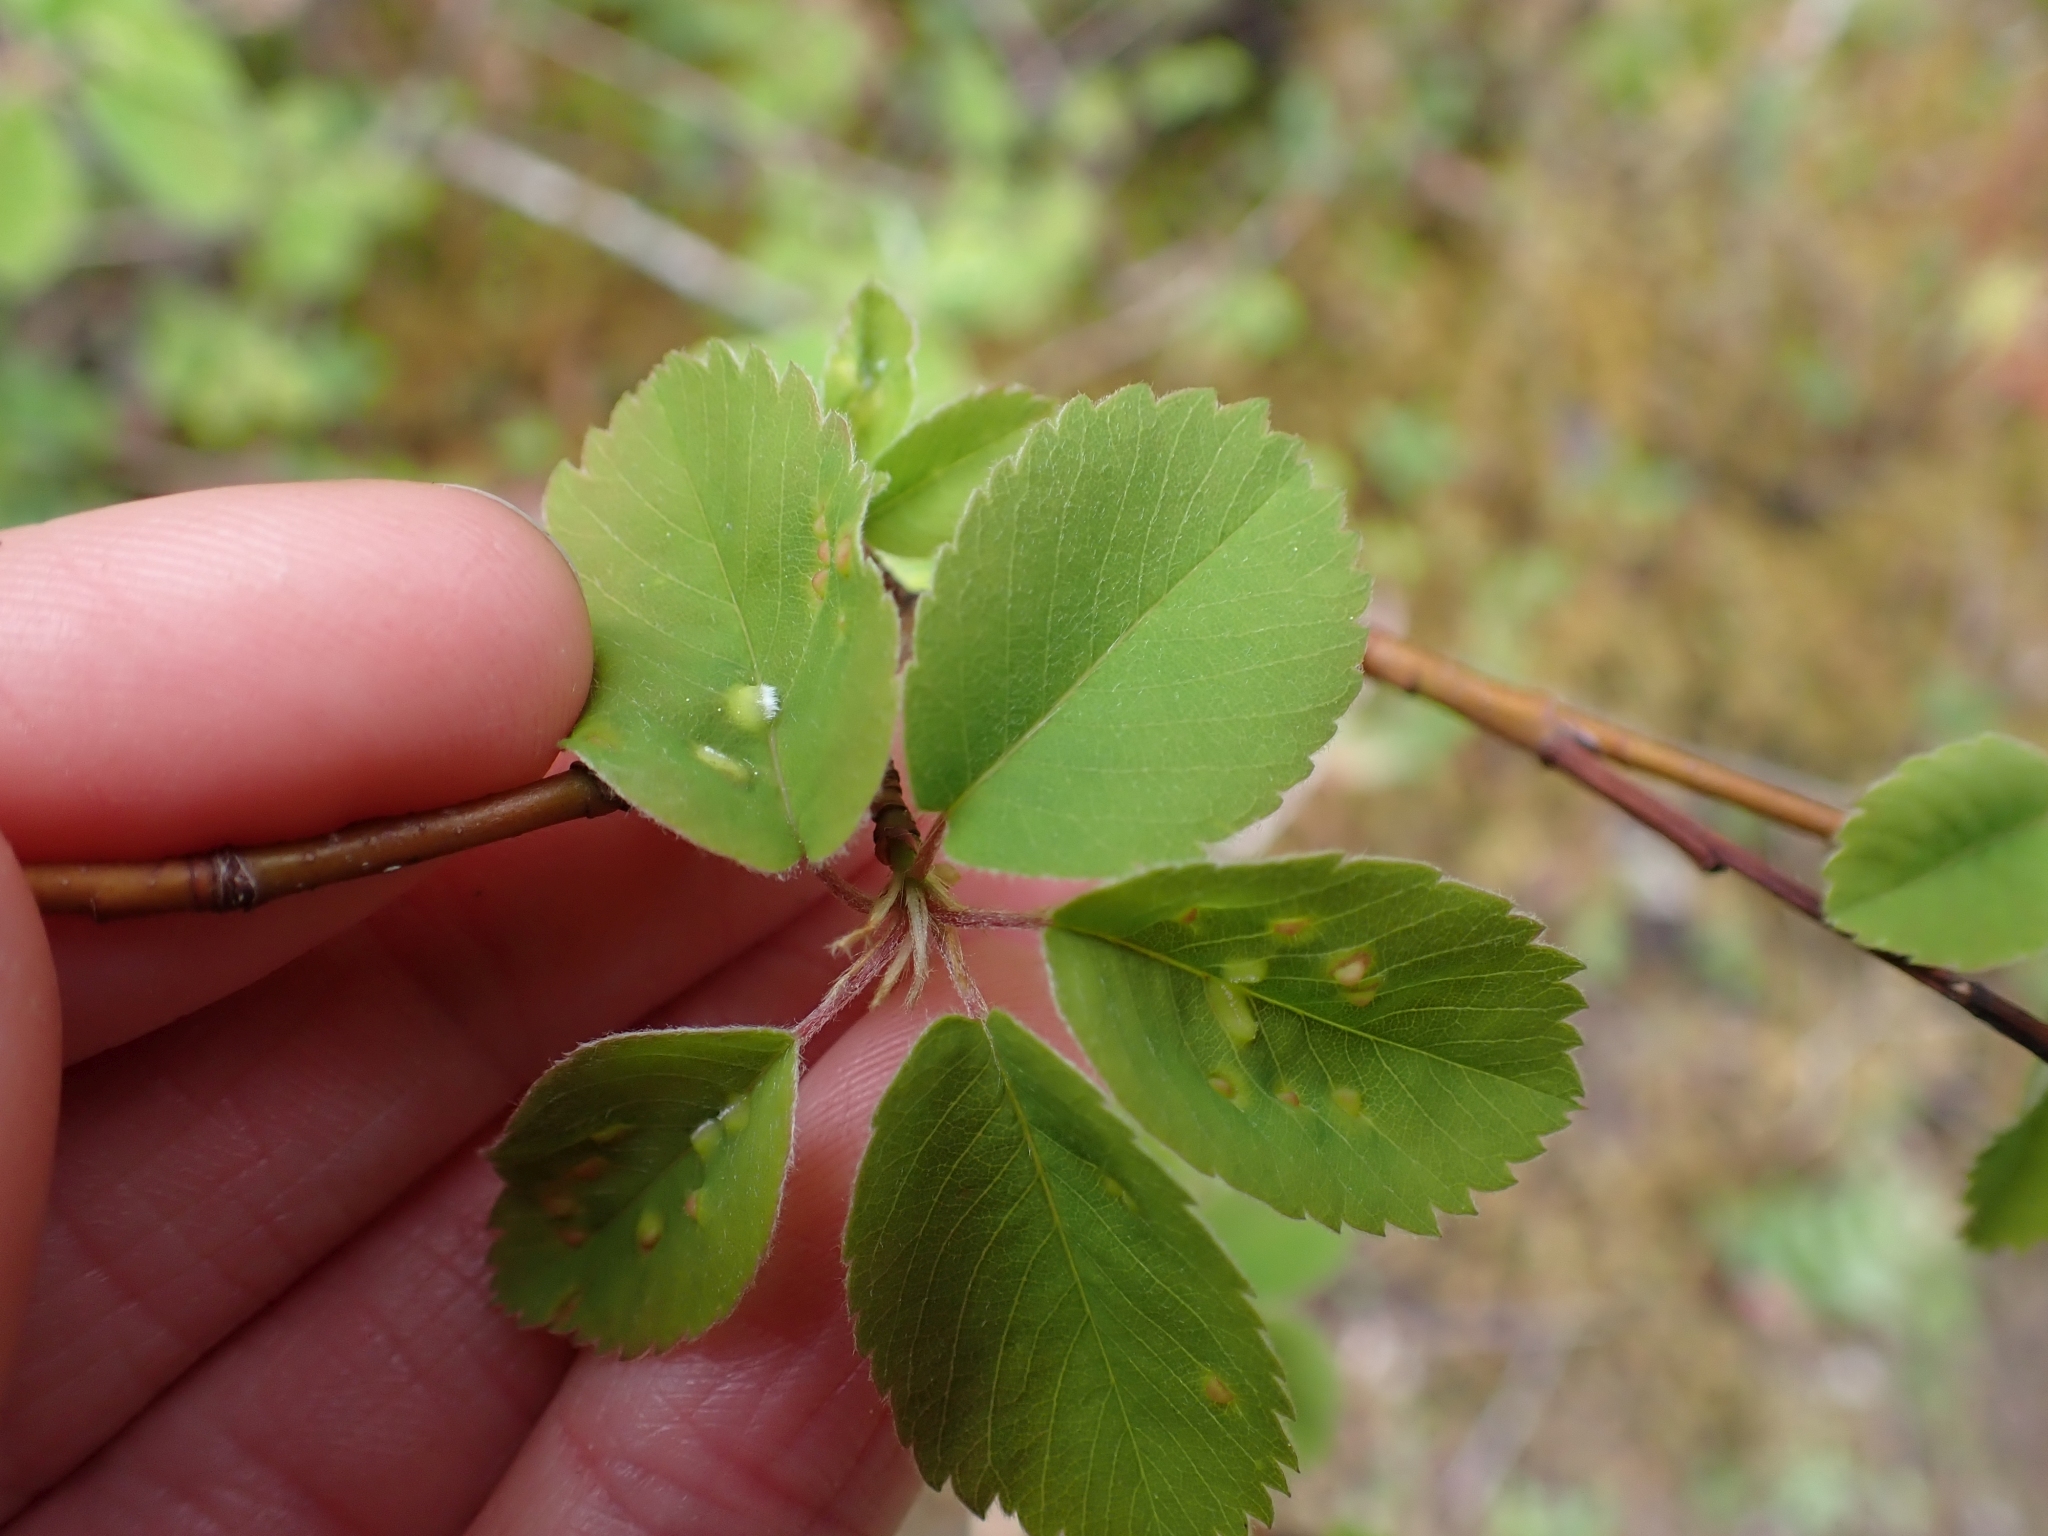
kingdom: Plantae
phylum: Tracheophyta
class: Magnoliopsida
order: Rosales
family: Rosaceae
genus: Amelanchier
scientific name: Amelanchier alnifolia
